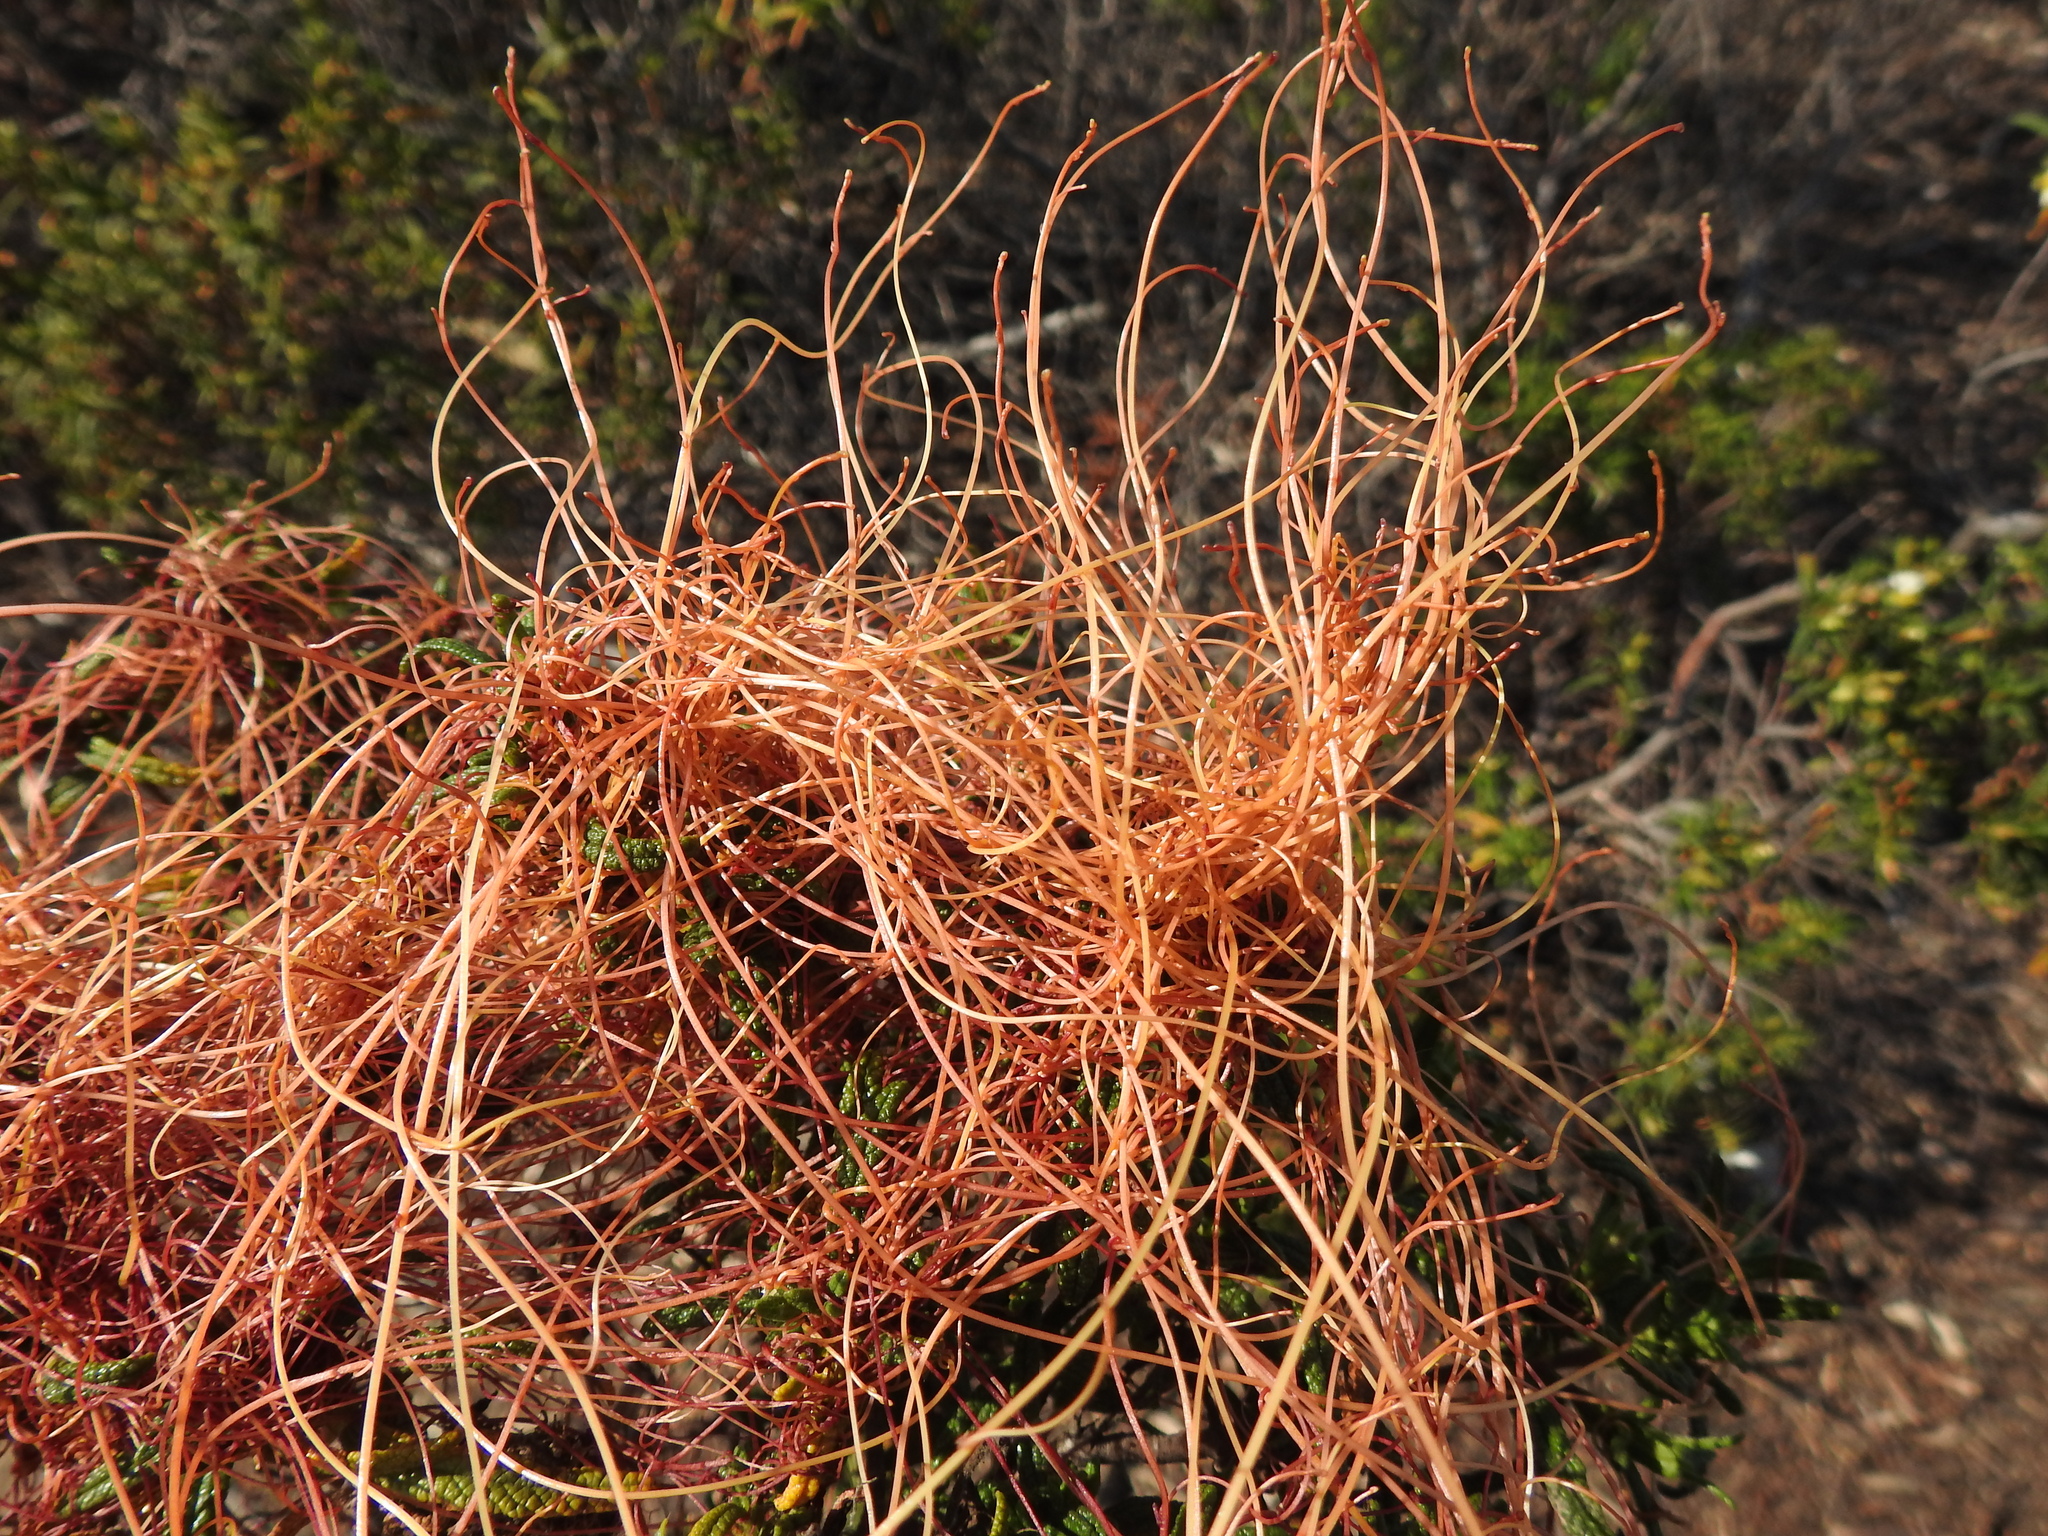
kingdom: Plantae
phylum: Tracheophyta
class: Magnoliopsida
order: Solanales
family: Convolvulaceae
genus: Cuscuta
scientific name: Cuscuta epithymum
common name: Clover dodder
